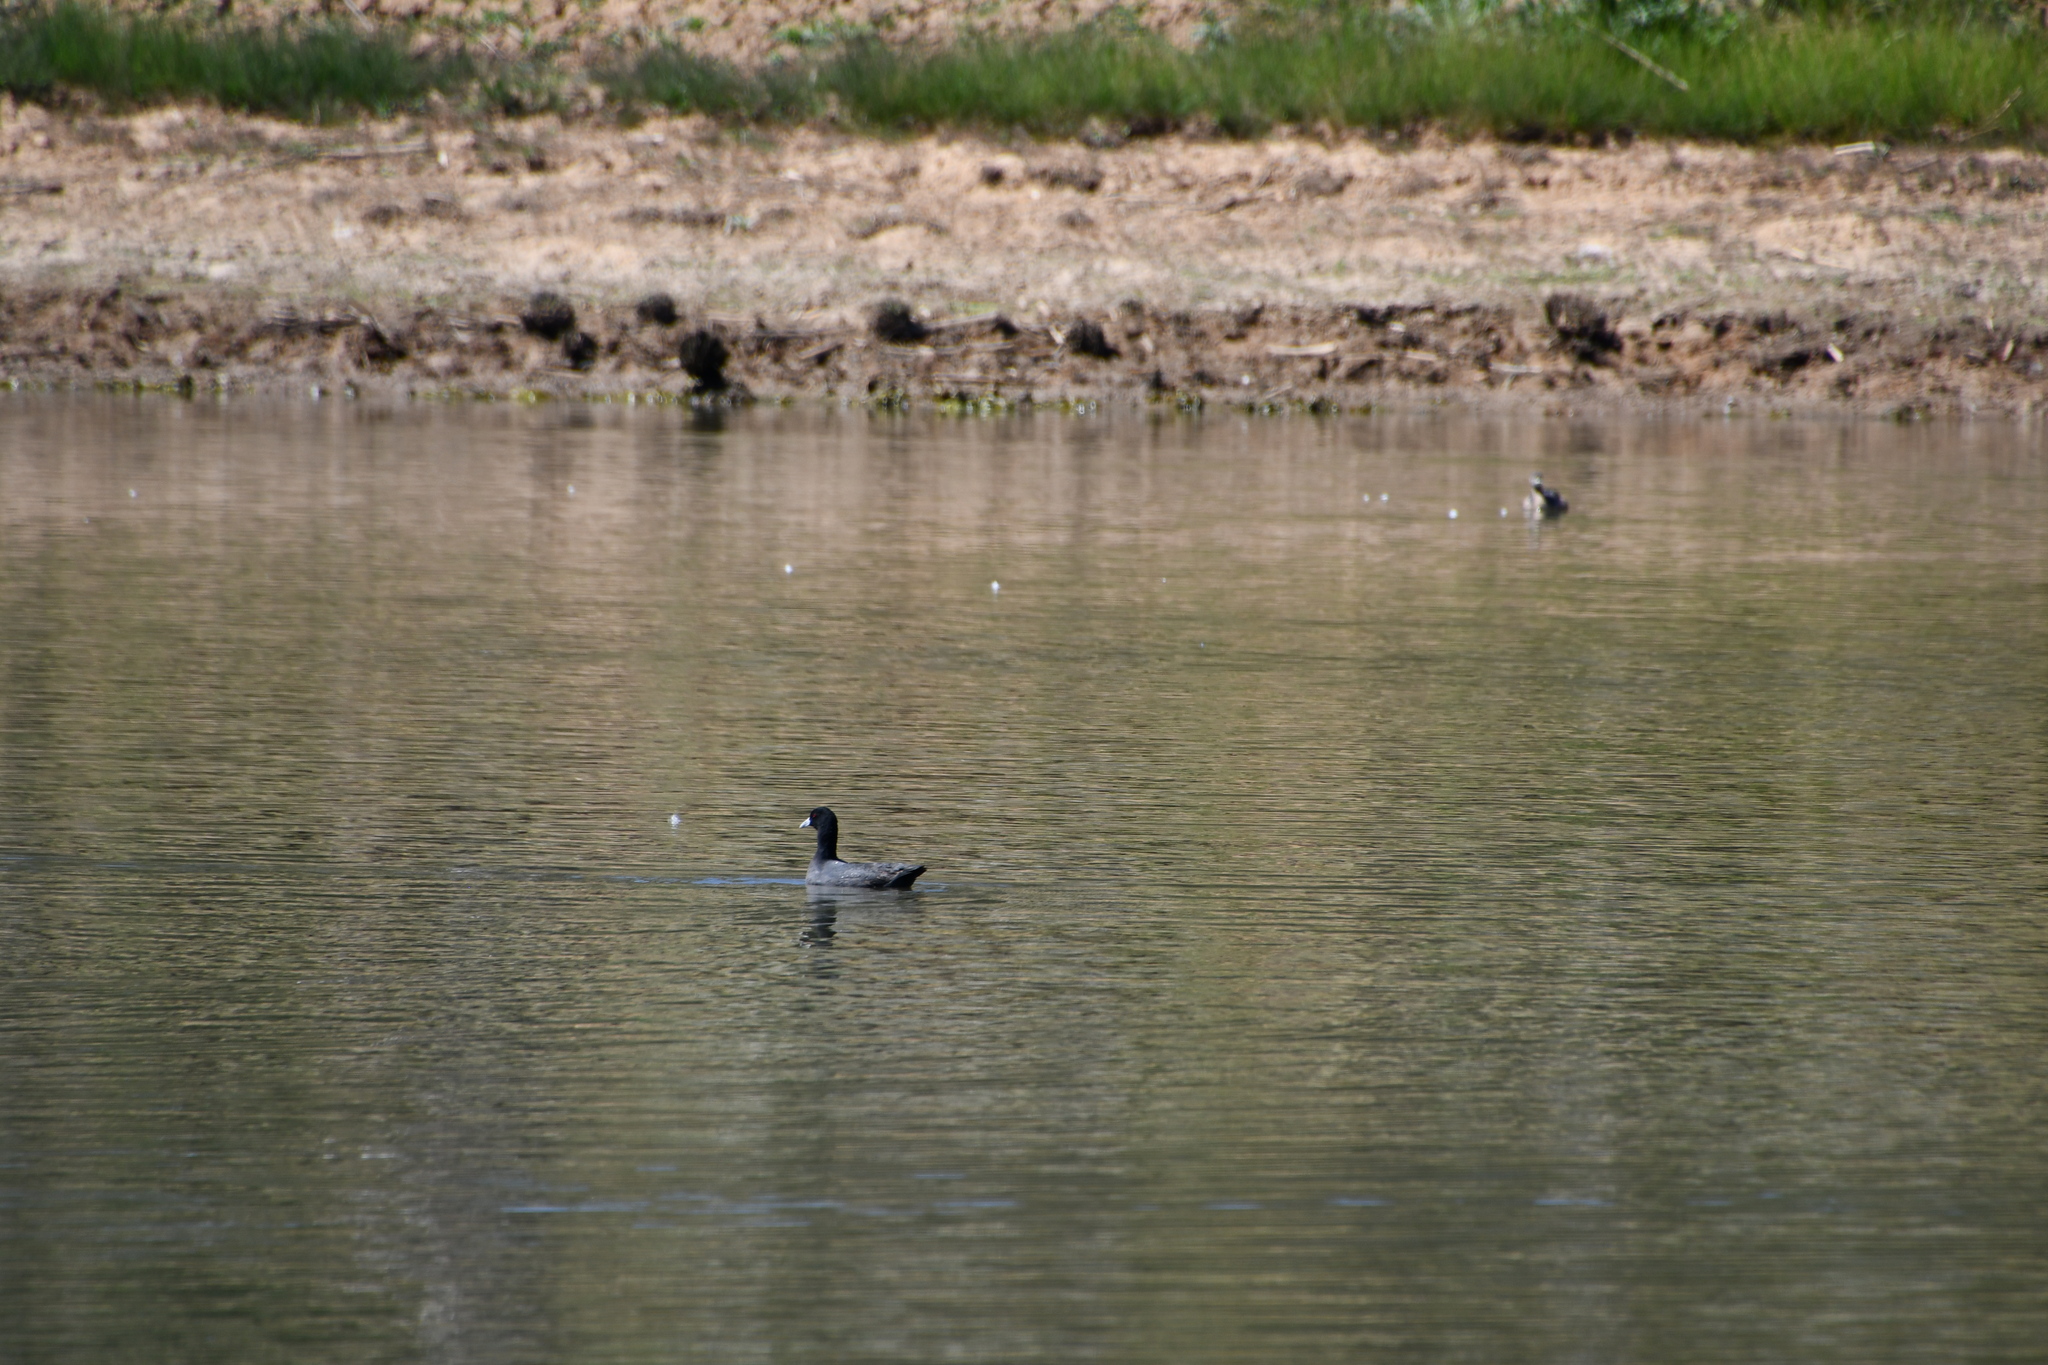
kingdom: Animalia
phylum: Chordata
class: Aves
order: Gruiformes
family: Rallidae
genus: Fulica
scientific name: Fulica atra
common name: Eurasian coot
